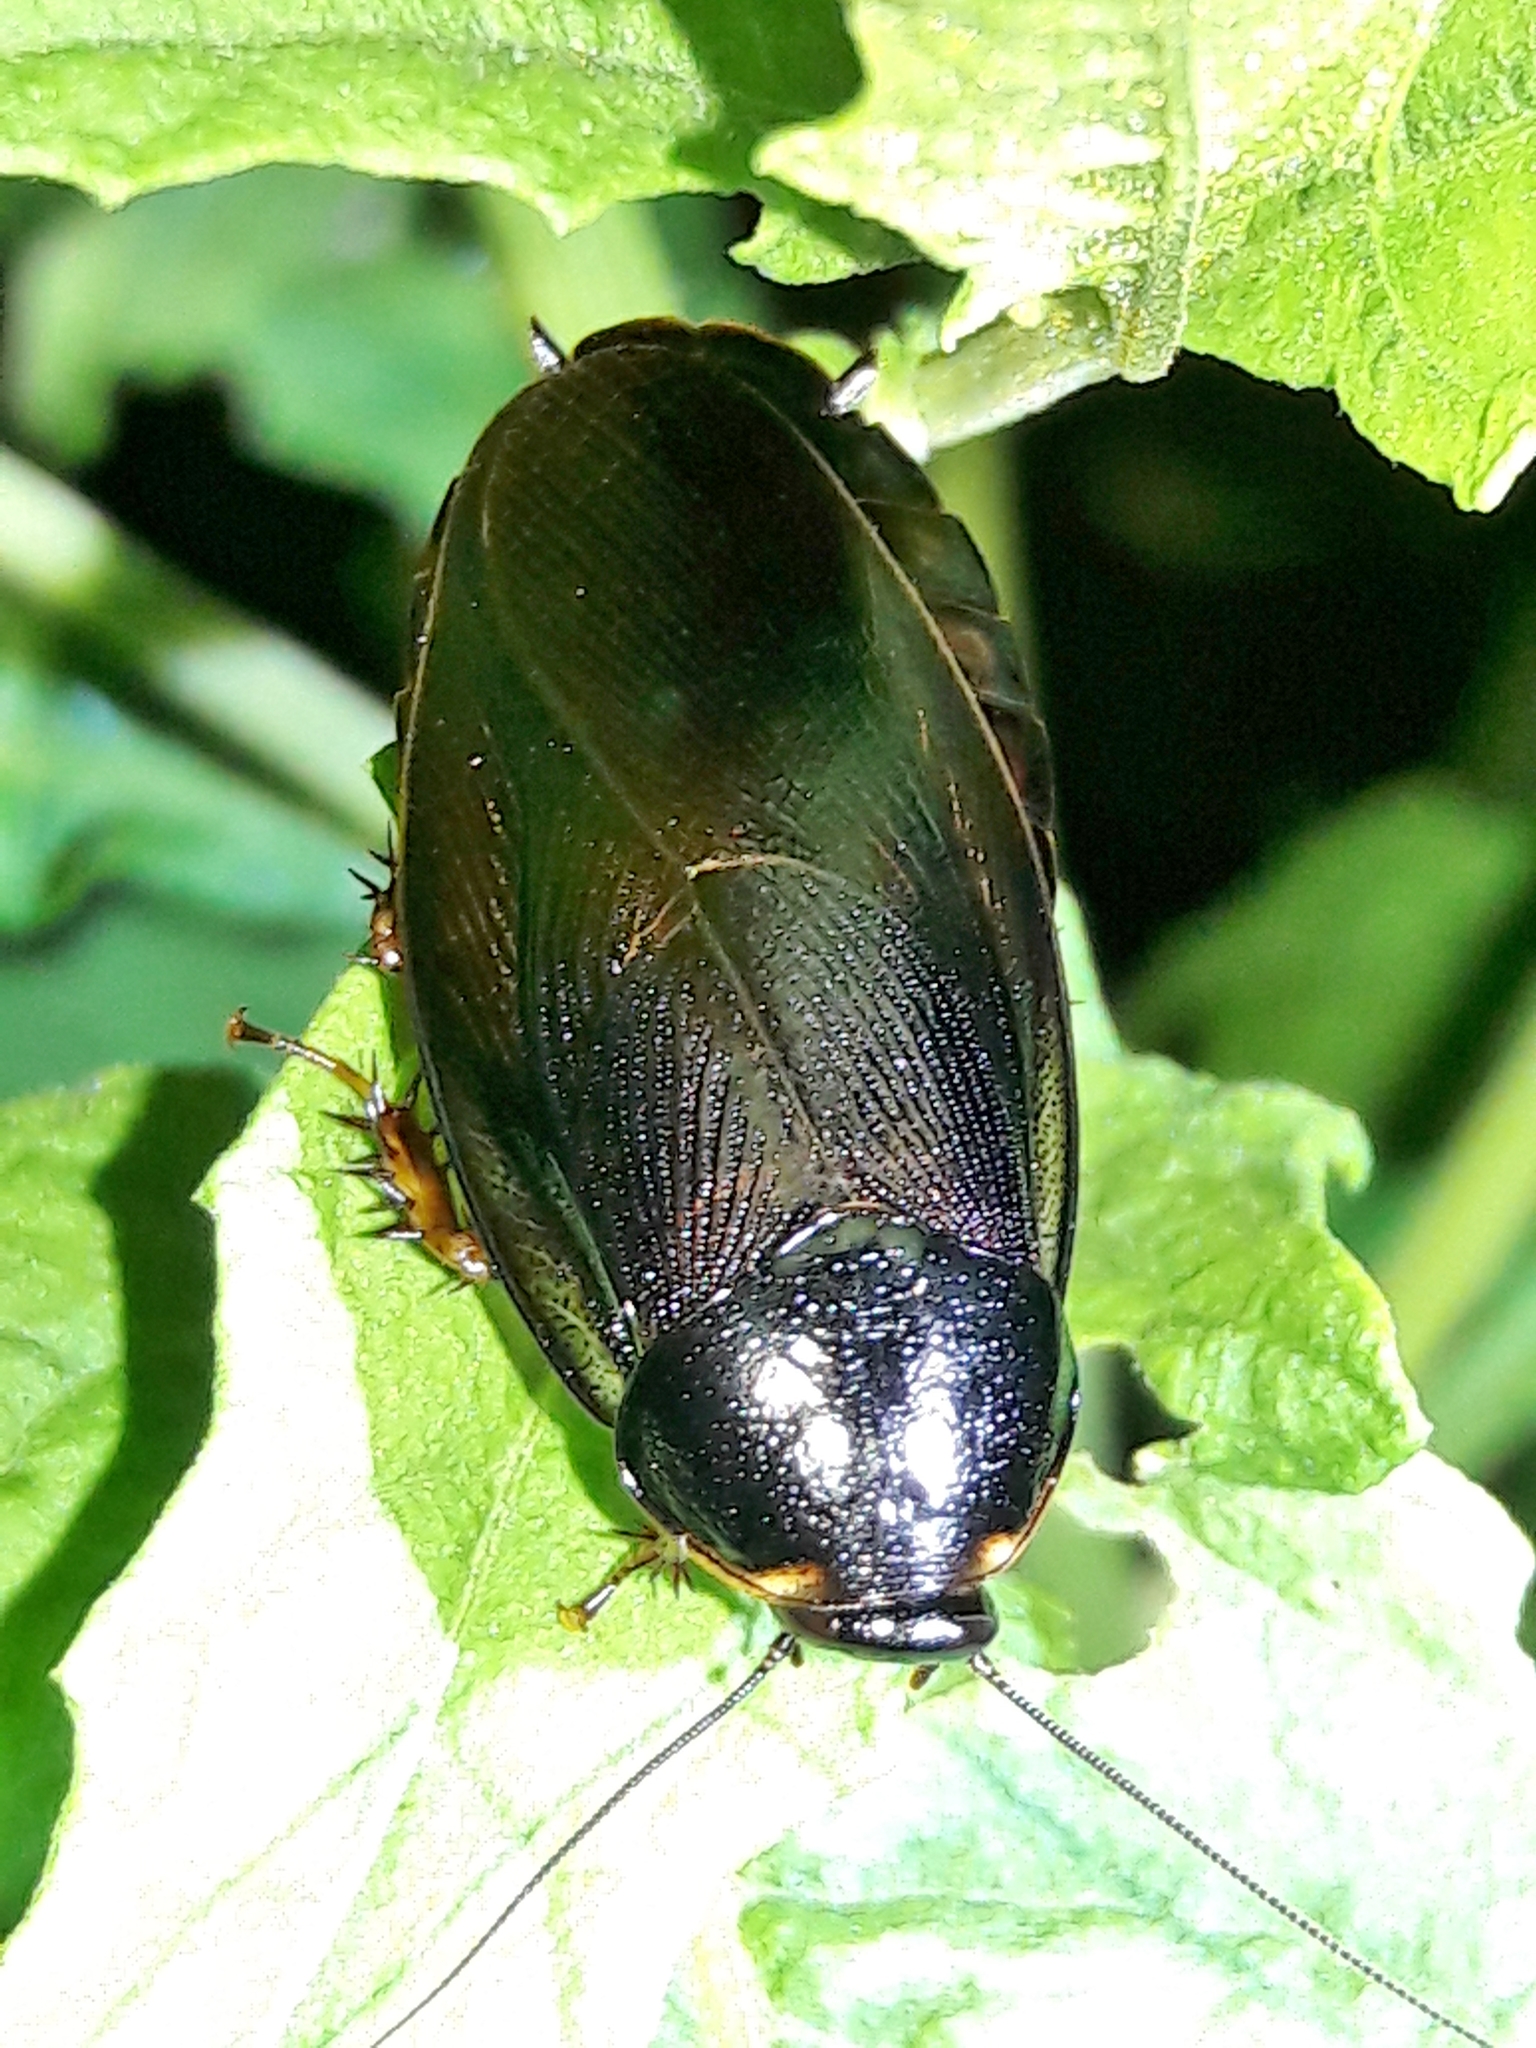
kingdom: Animalia
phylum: Arthropoda
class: Insecta
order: Blattodea
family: Blaberidae
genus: Pycnoscelus
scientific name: Pycnoscelus surinamensis
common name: Surinam cockroach
